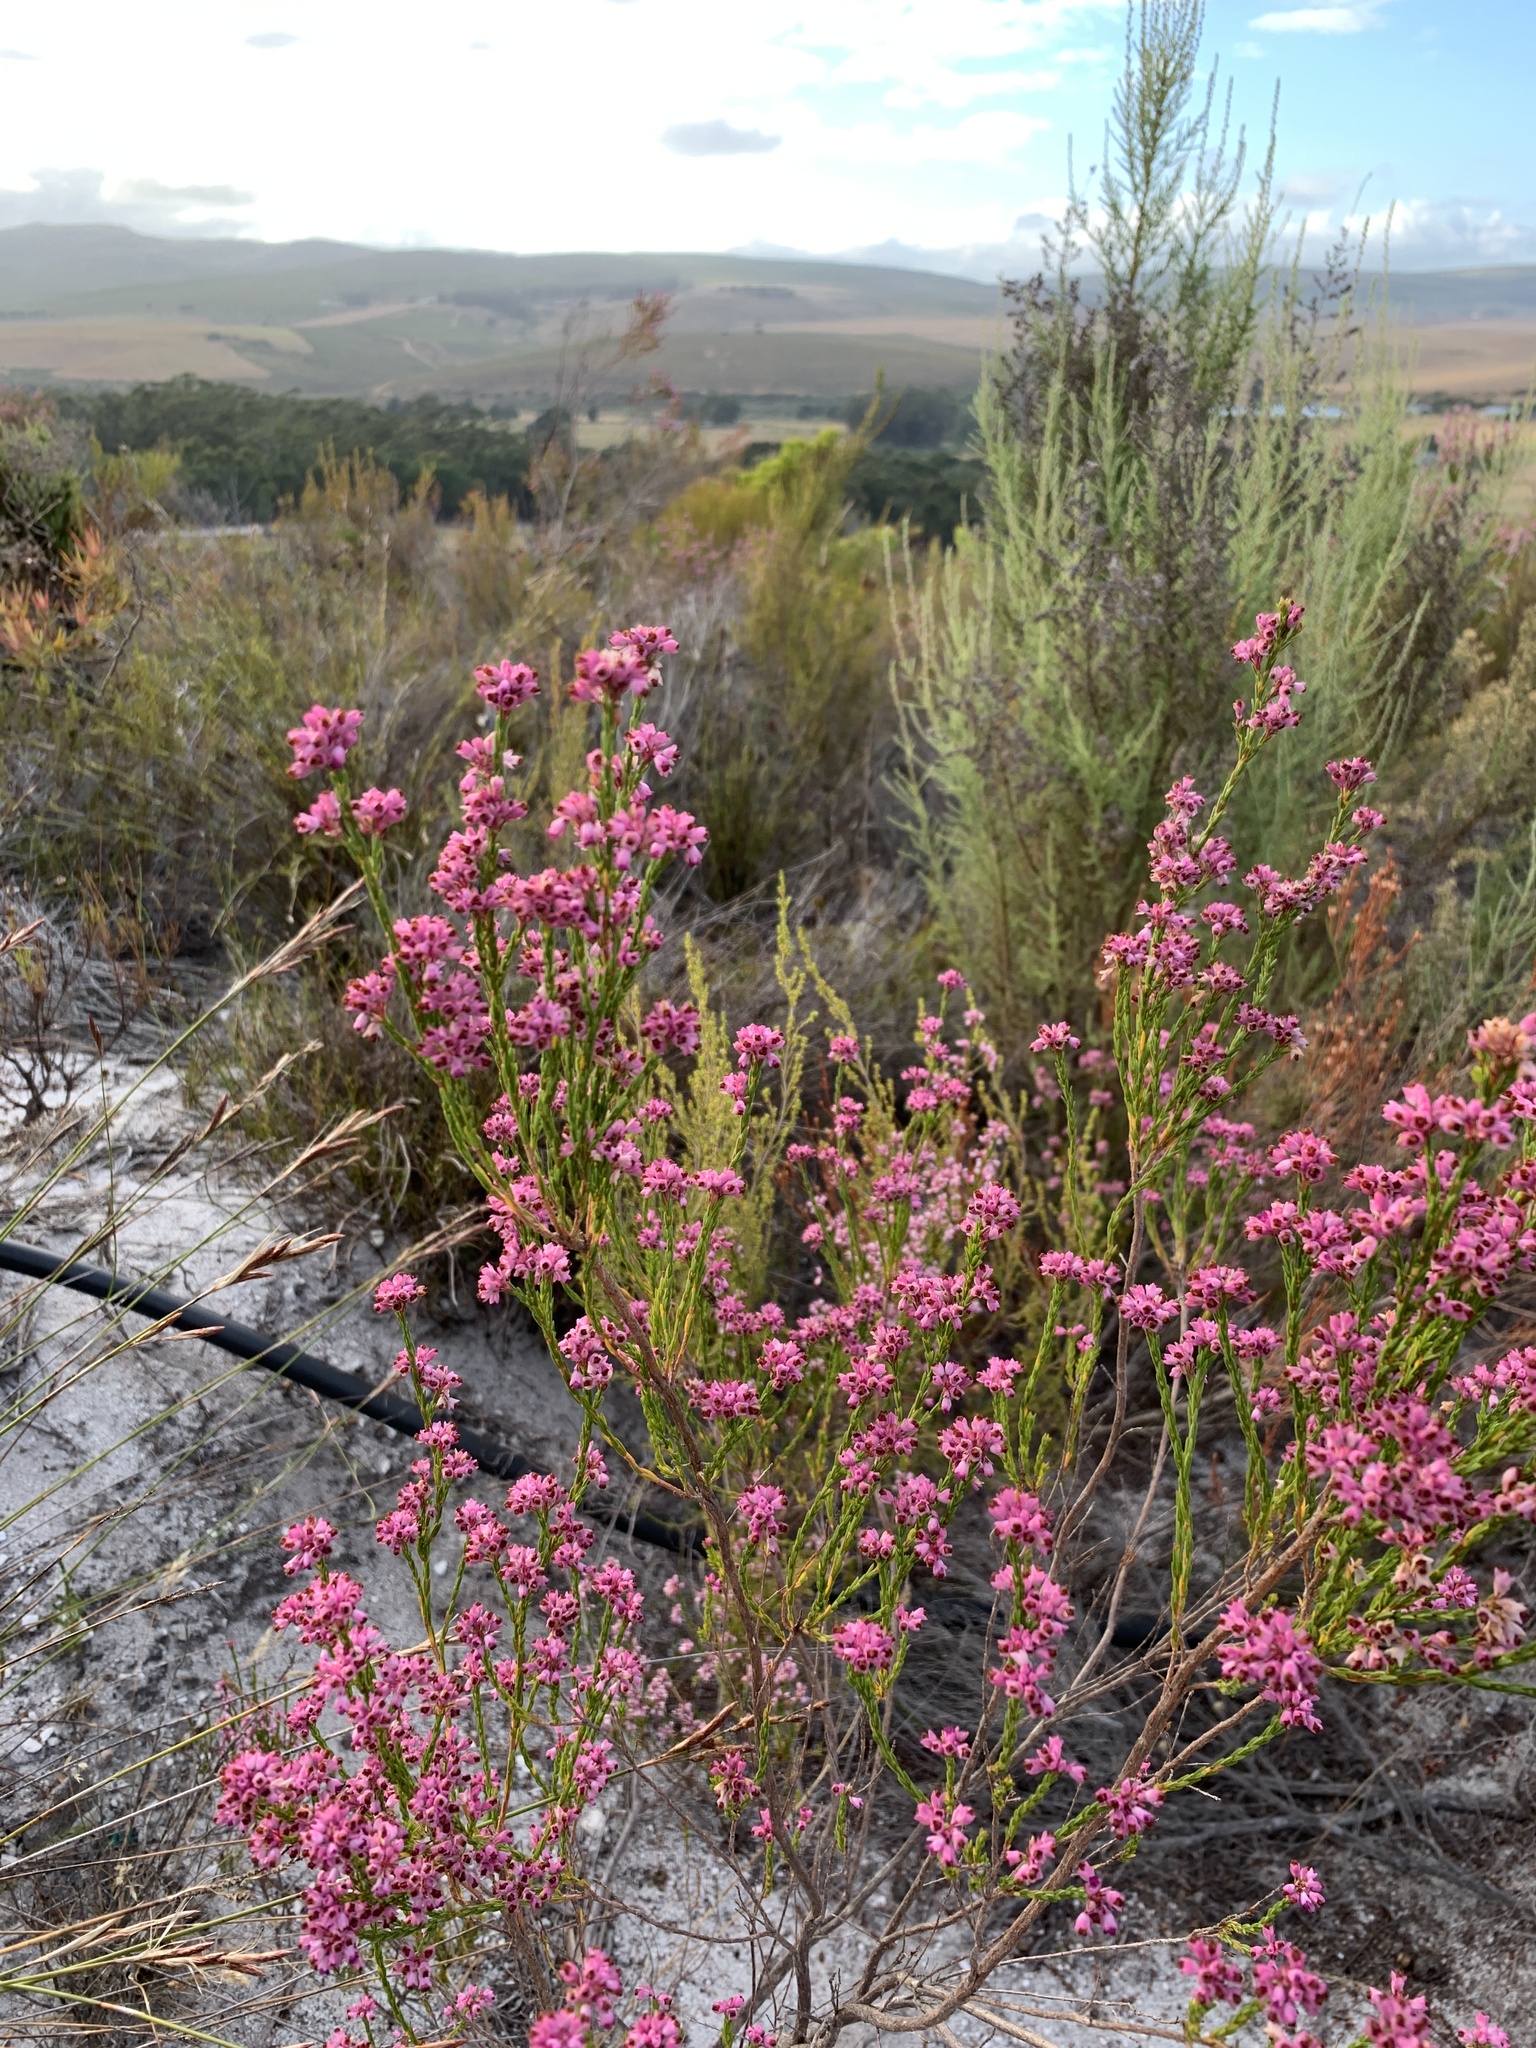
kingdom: Plantae
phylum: Tracheophyta
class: Magnoliopsida
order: Ericales
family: Ericaceae
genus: Erica
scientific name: Erica corifolia
